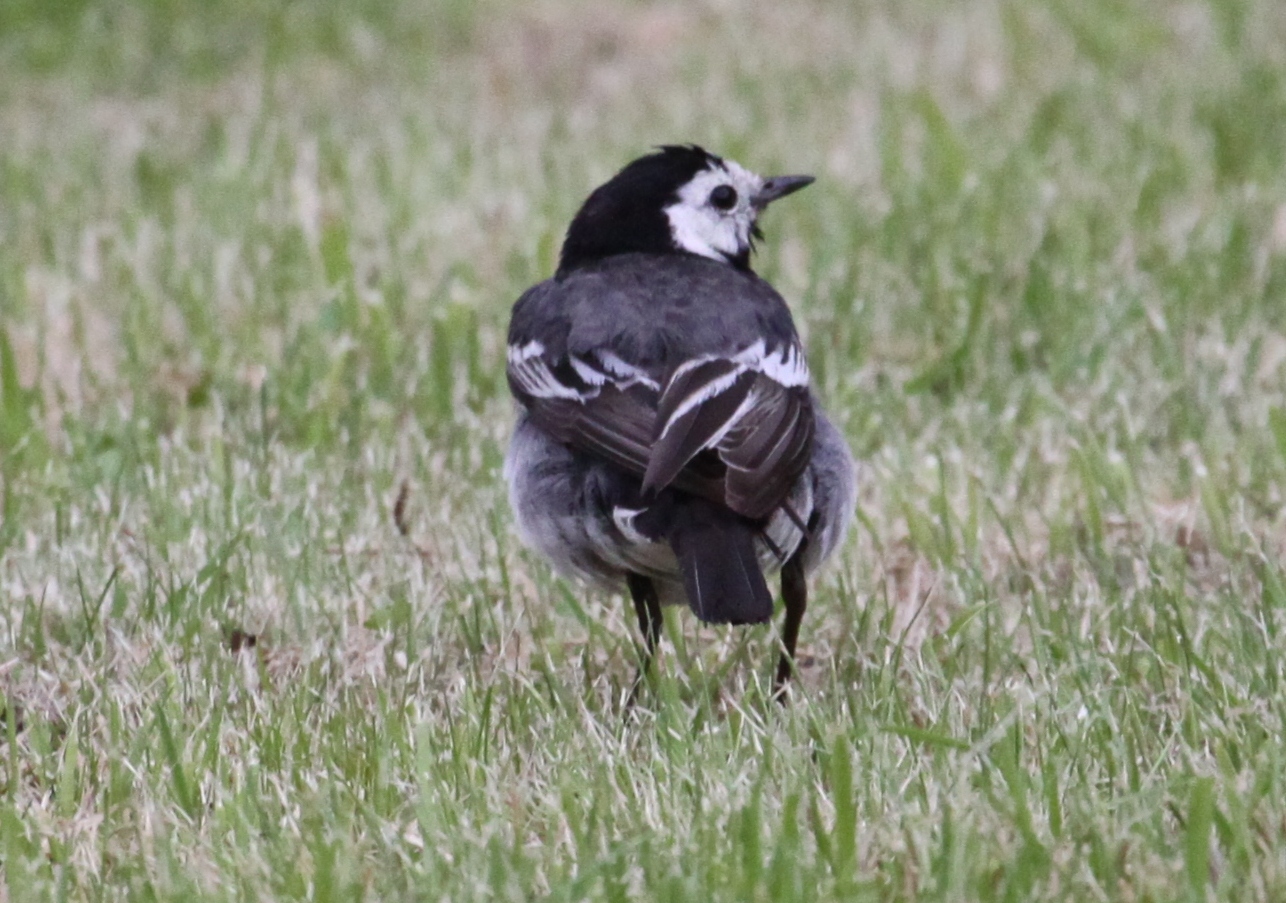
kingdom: Animalia
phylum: Chordata
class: Aves
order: Passeriformes
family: Motacillidae
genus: Motacilla
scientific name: Motacilla alba
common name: White wagtail
